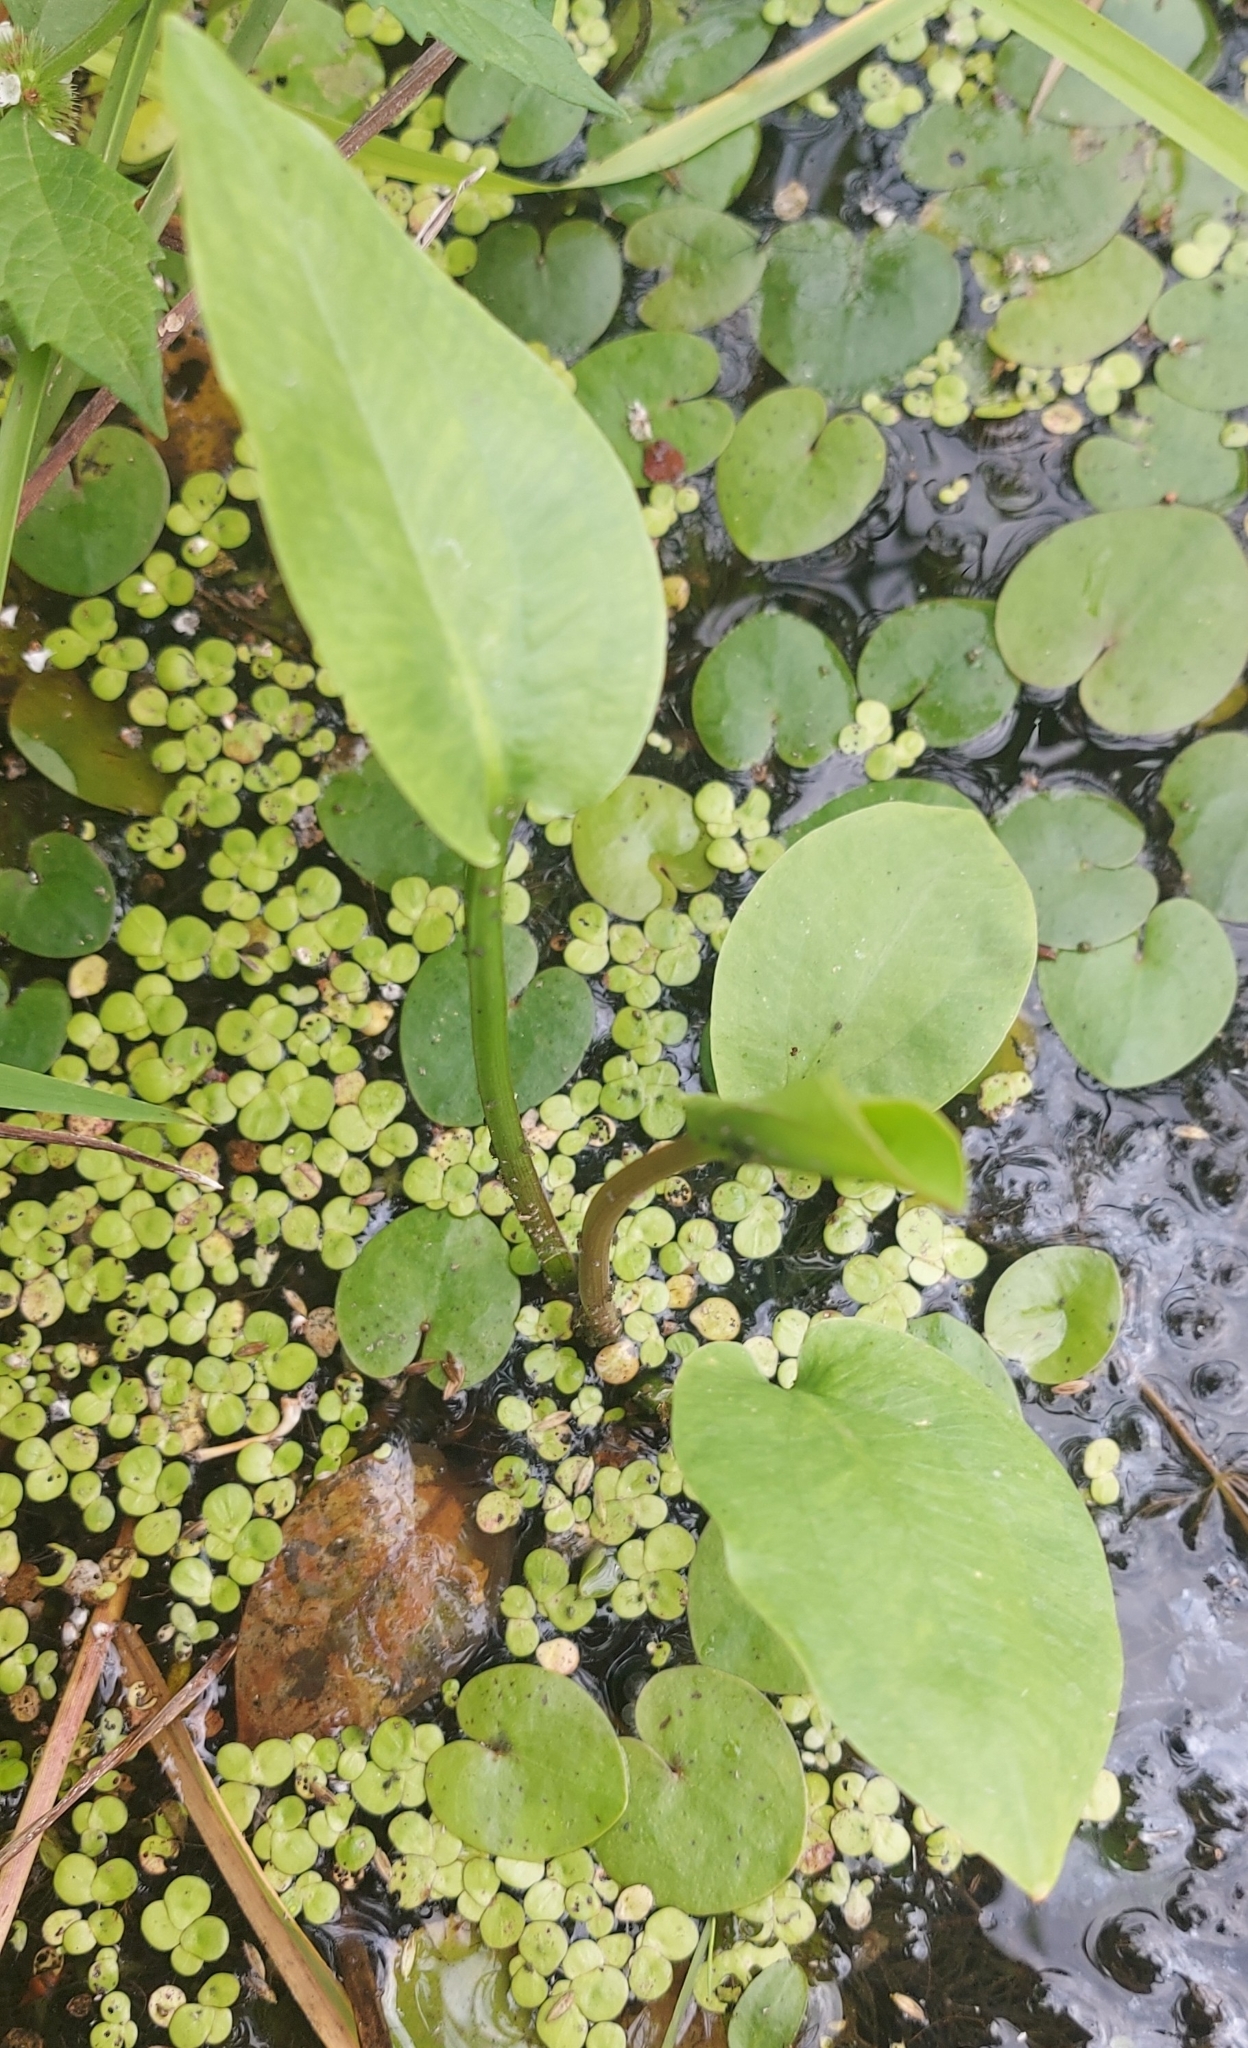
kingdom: Plantae
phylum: Tracheophyta
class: Liliopsida
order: Alismatales
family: Alismataceae
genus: Alisma
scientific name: Alisma plantago-aquatica
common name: Water-plantain
